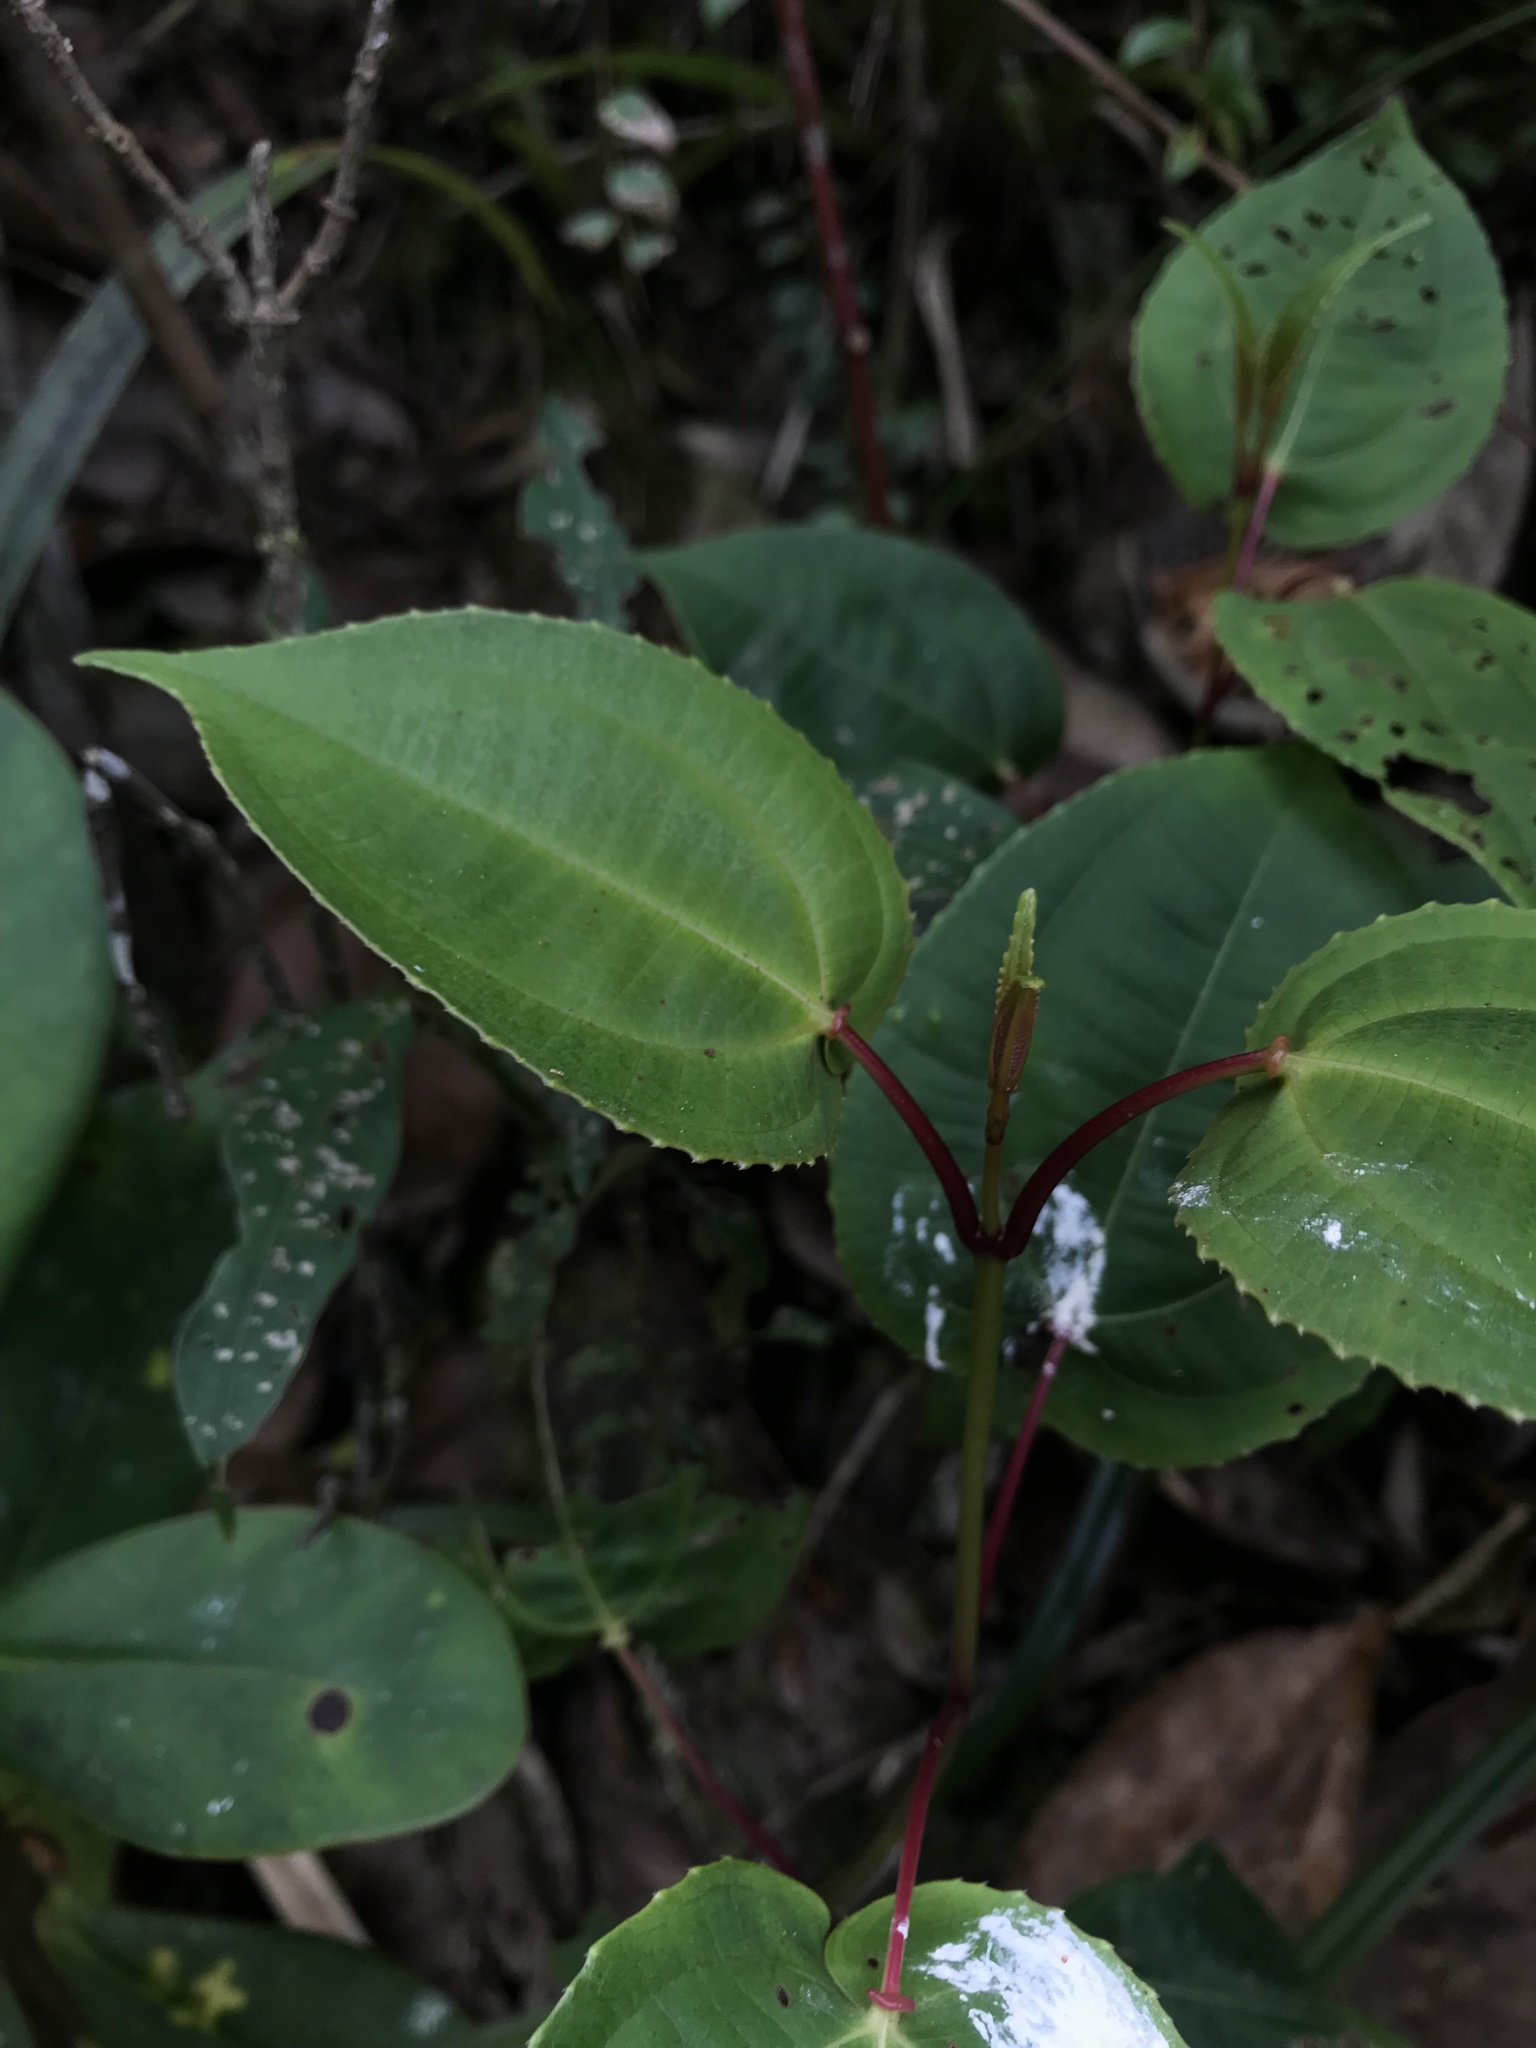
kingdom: Plantae
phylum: Tracheophyta
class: Magnoliopsida
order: Myrtales
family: Melastomataceae
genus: Axinaea
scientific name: Axinaea scutigera
